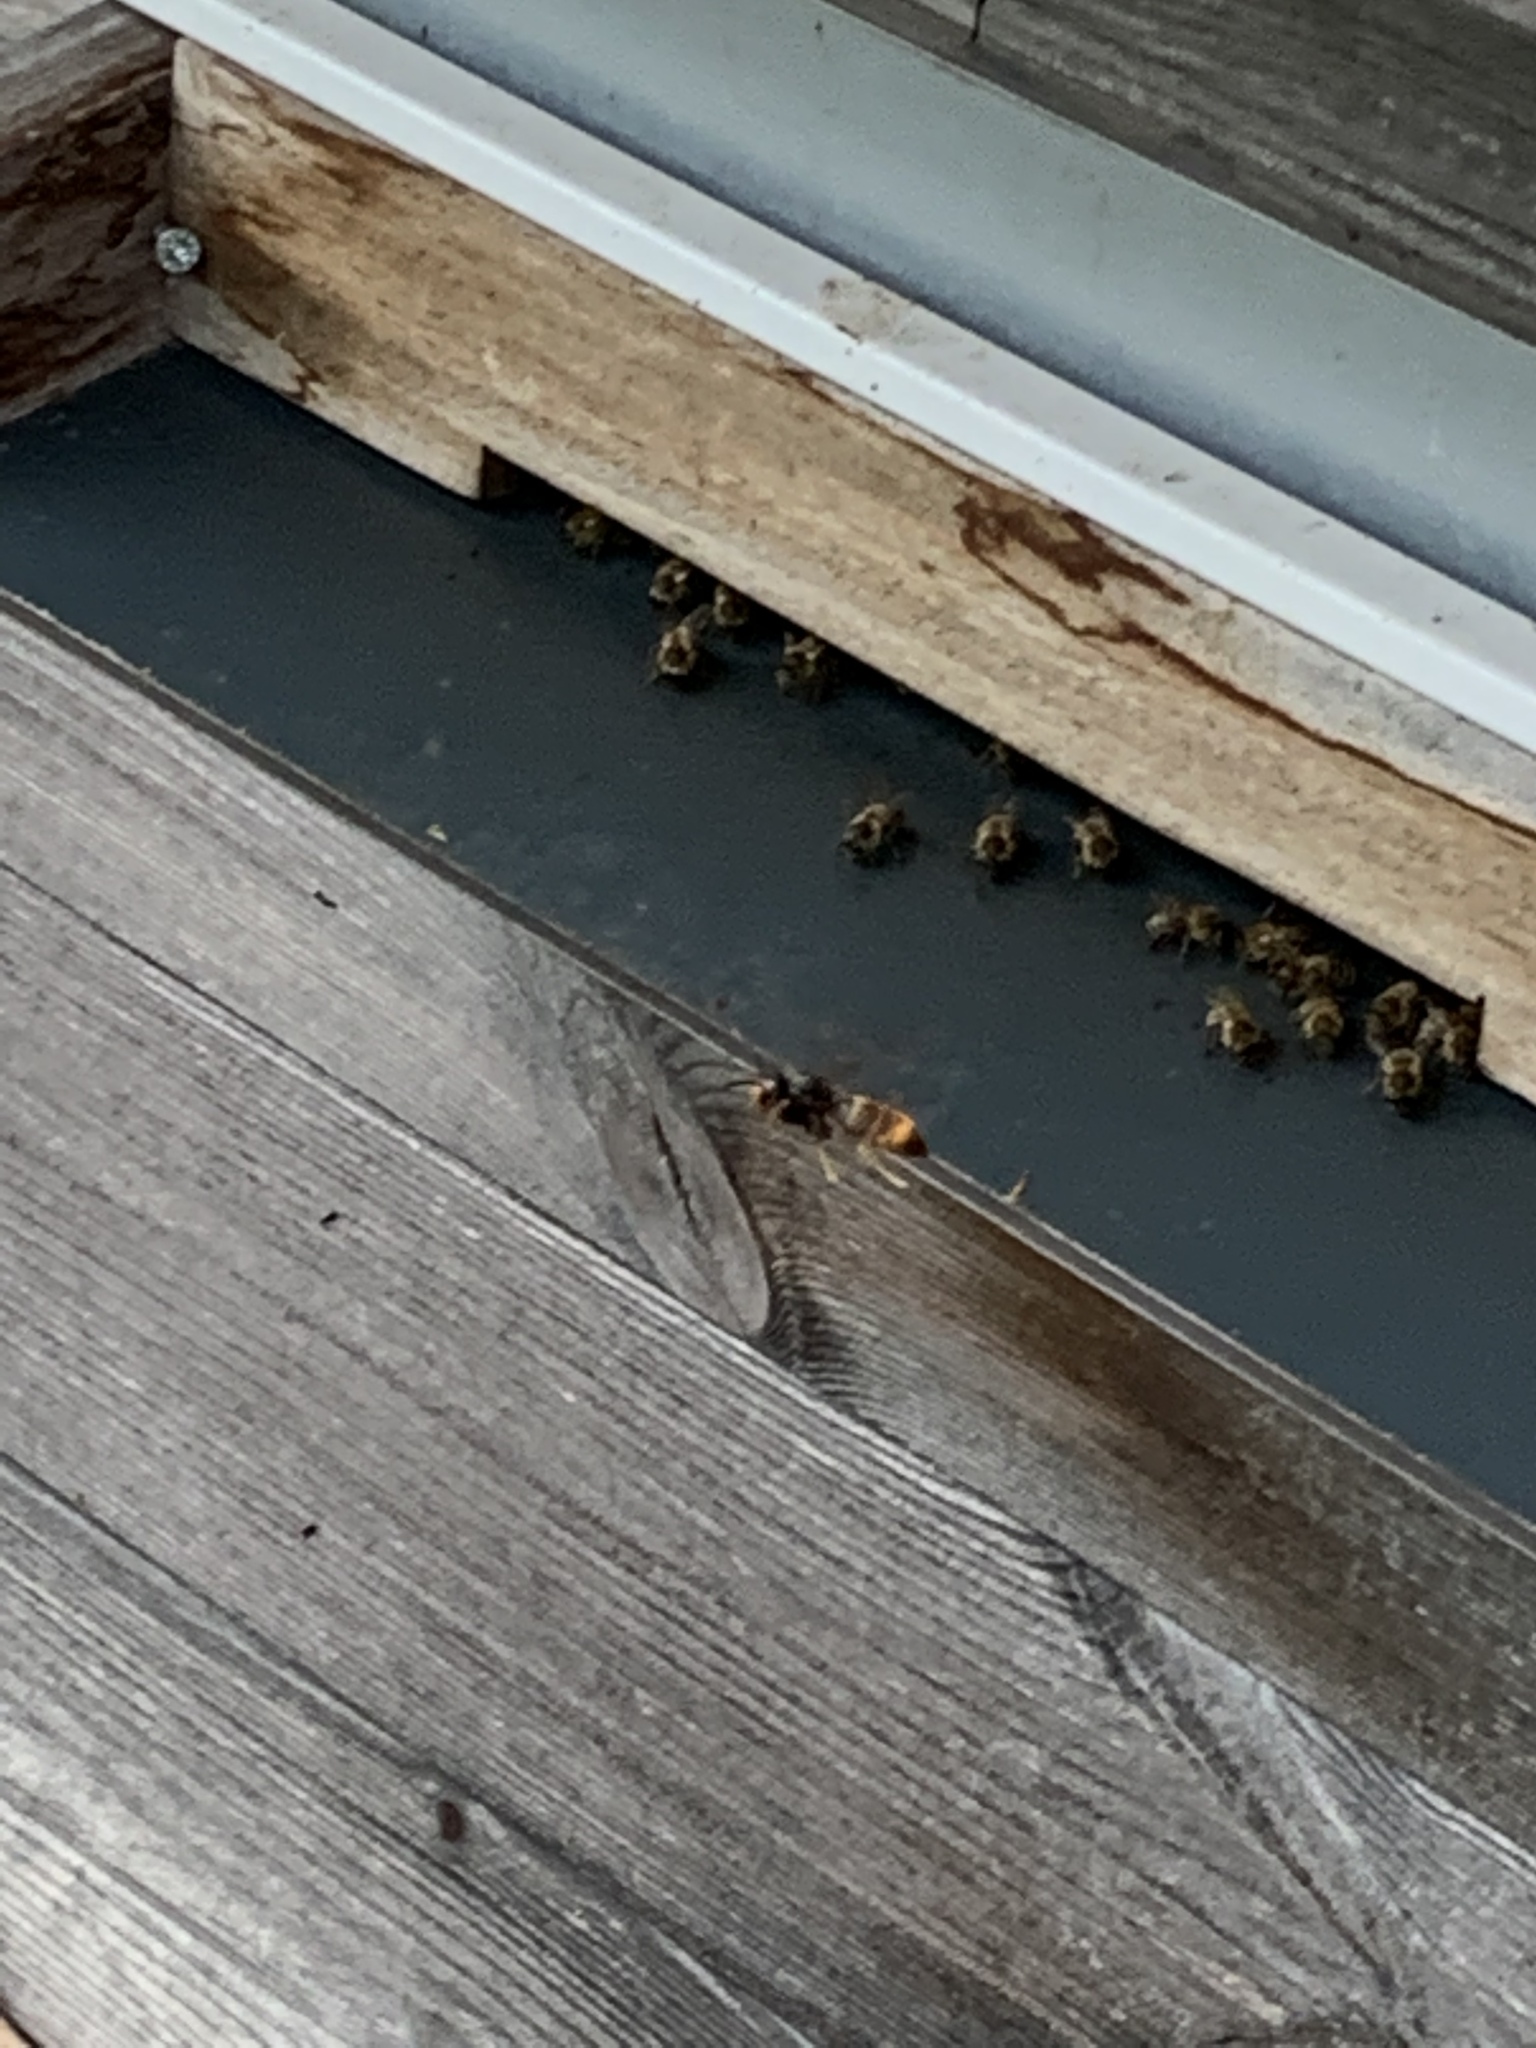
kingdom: Animalia
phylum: Arthropoda
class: Insecta
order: Hymenoptera
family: Vespidae
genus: Vespa
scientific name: Vespa velutina
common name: Asian hornet
